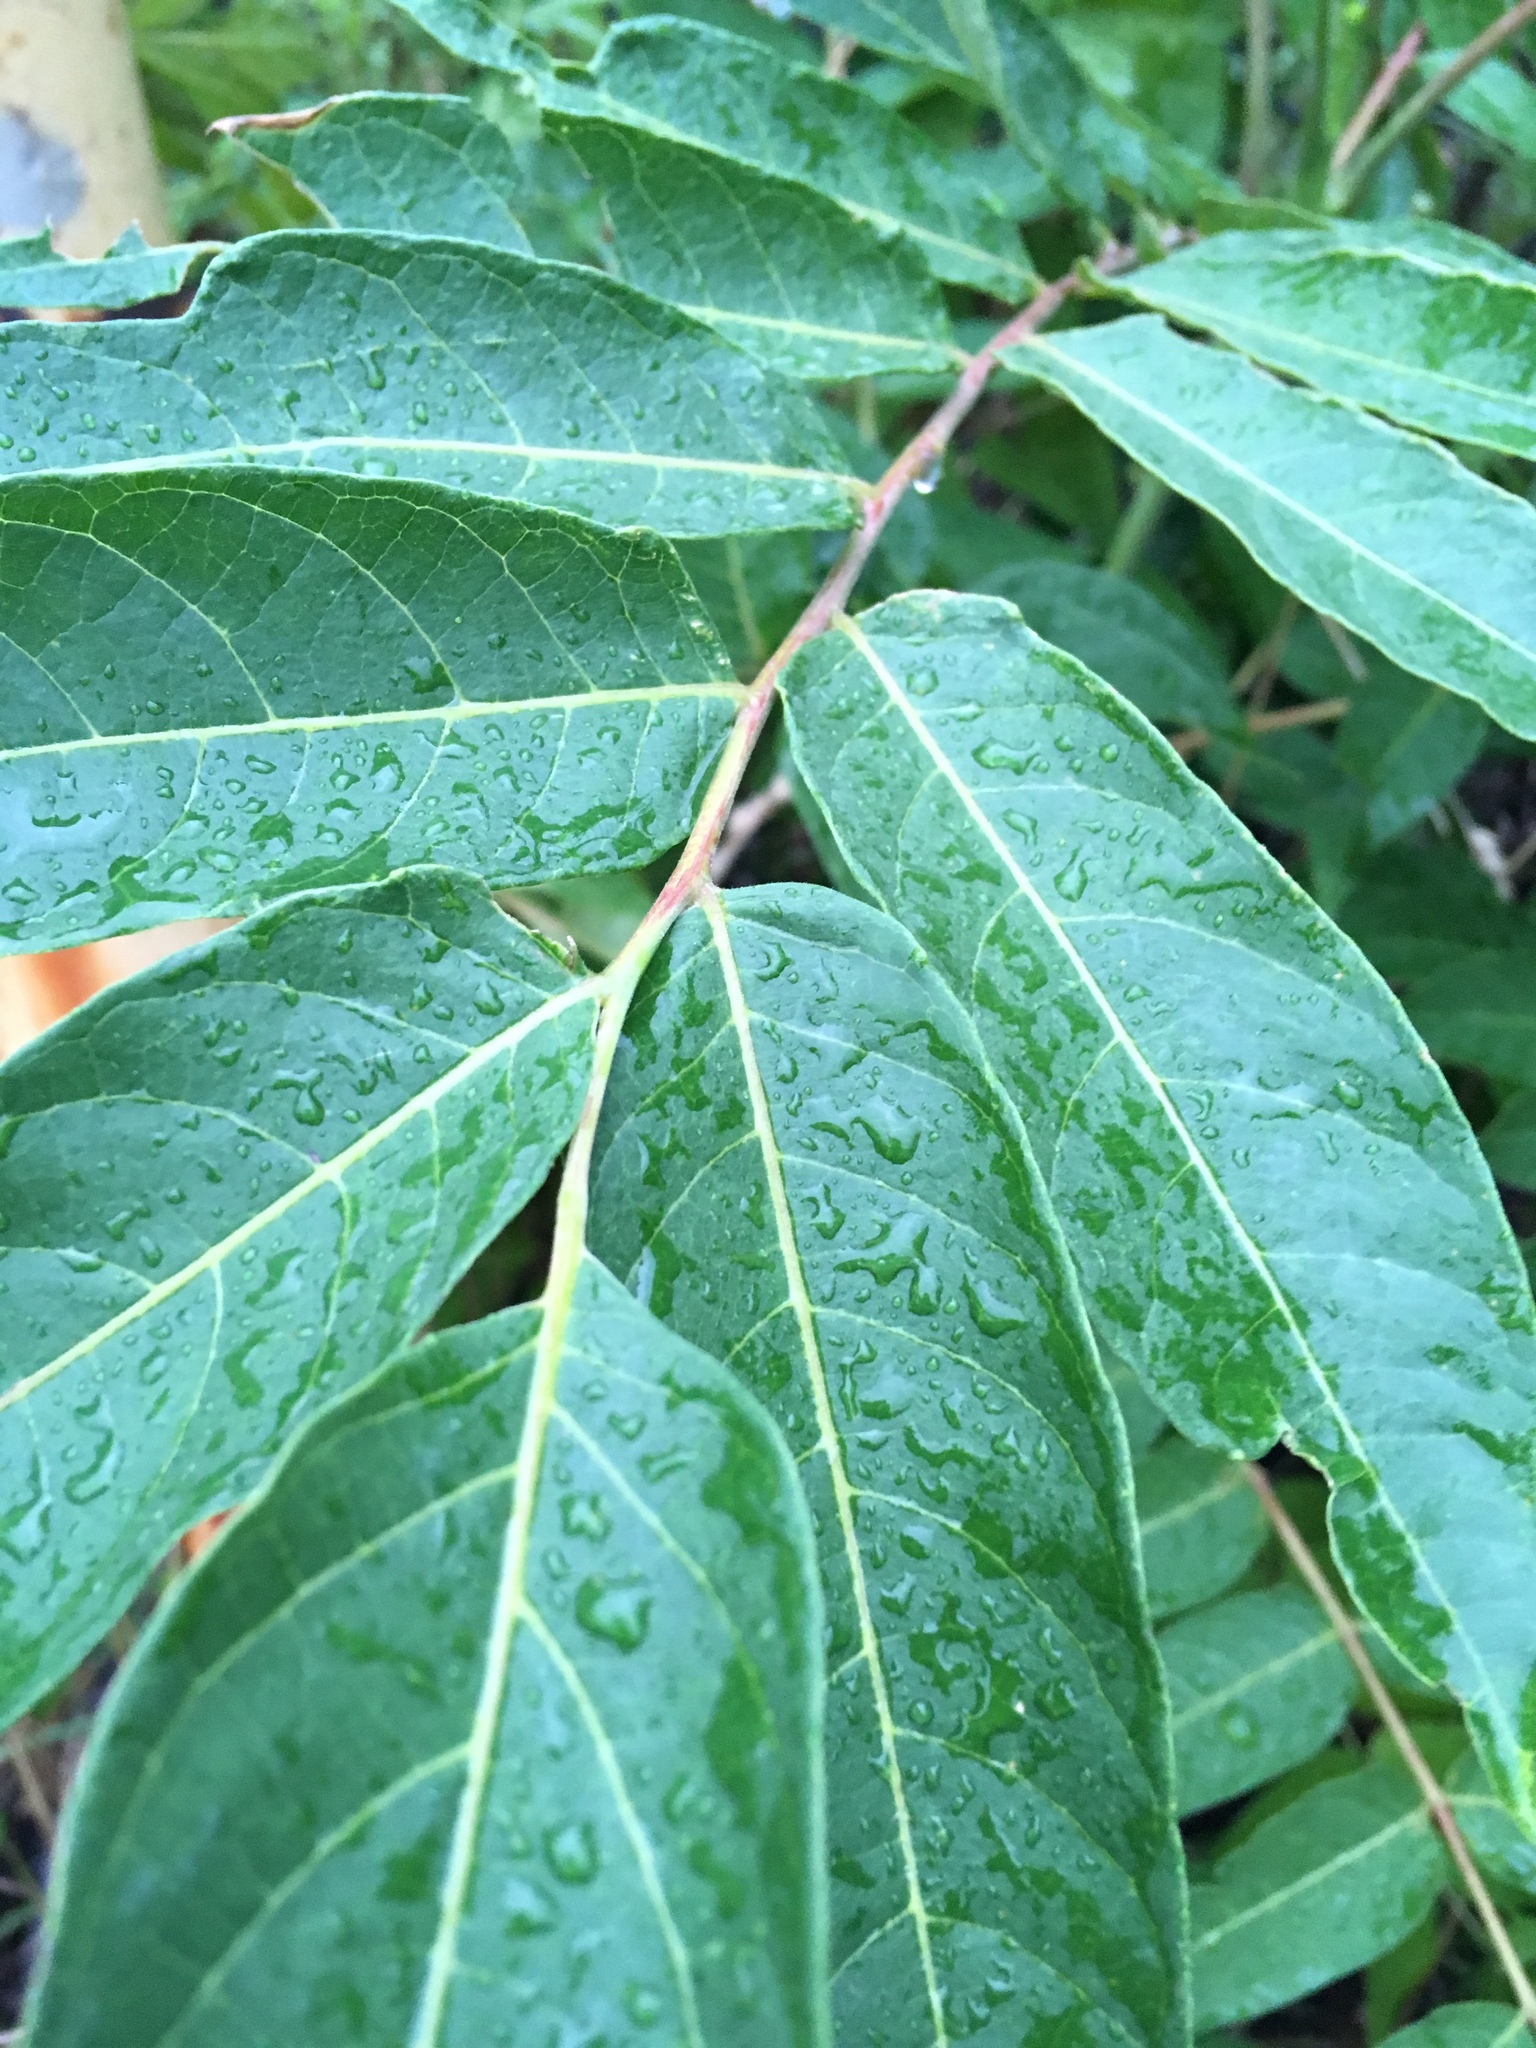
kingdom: Plantae
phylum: Tracheophyta
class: Magnoliopsida
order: Sapindales
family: Simaroubaceae
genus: Ailanthus
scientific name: Ailanthus altissima
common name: Tree-of-heaven
